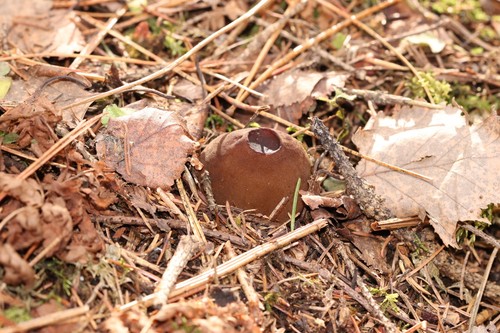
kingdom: Fungi
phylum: Ascomycota
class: Pezizomycetes
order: Pezizales
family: Sarcosomataceae
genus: Sarcosoma
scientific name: Sarcosoma globosum
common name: Charred-pancake cup
